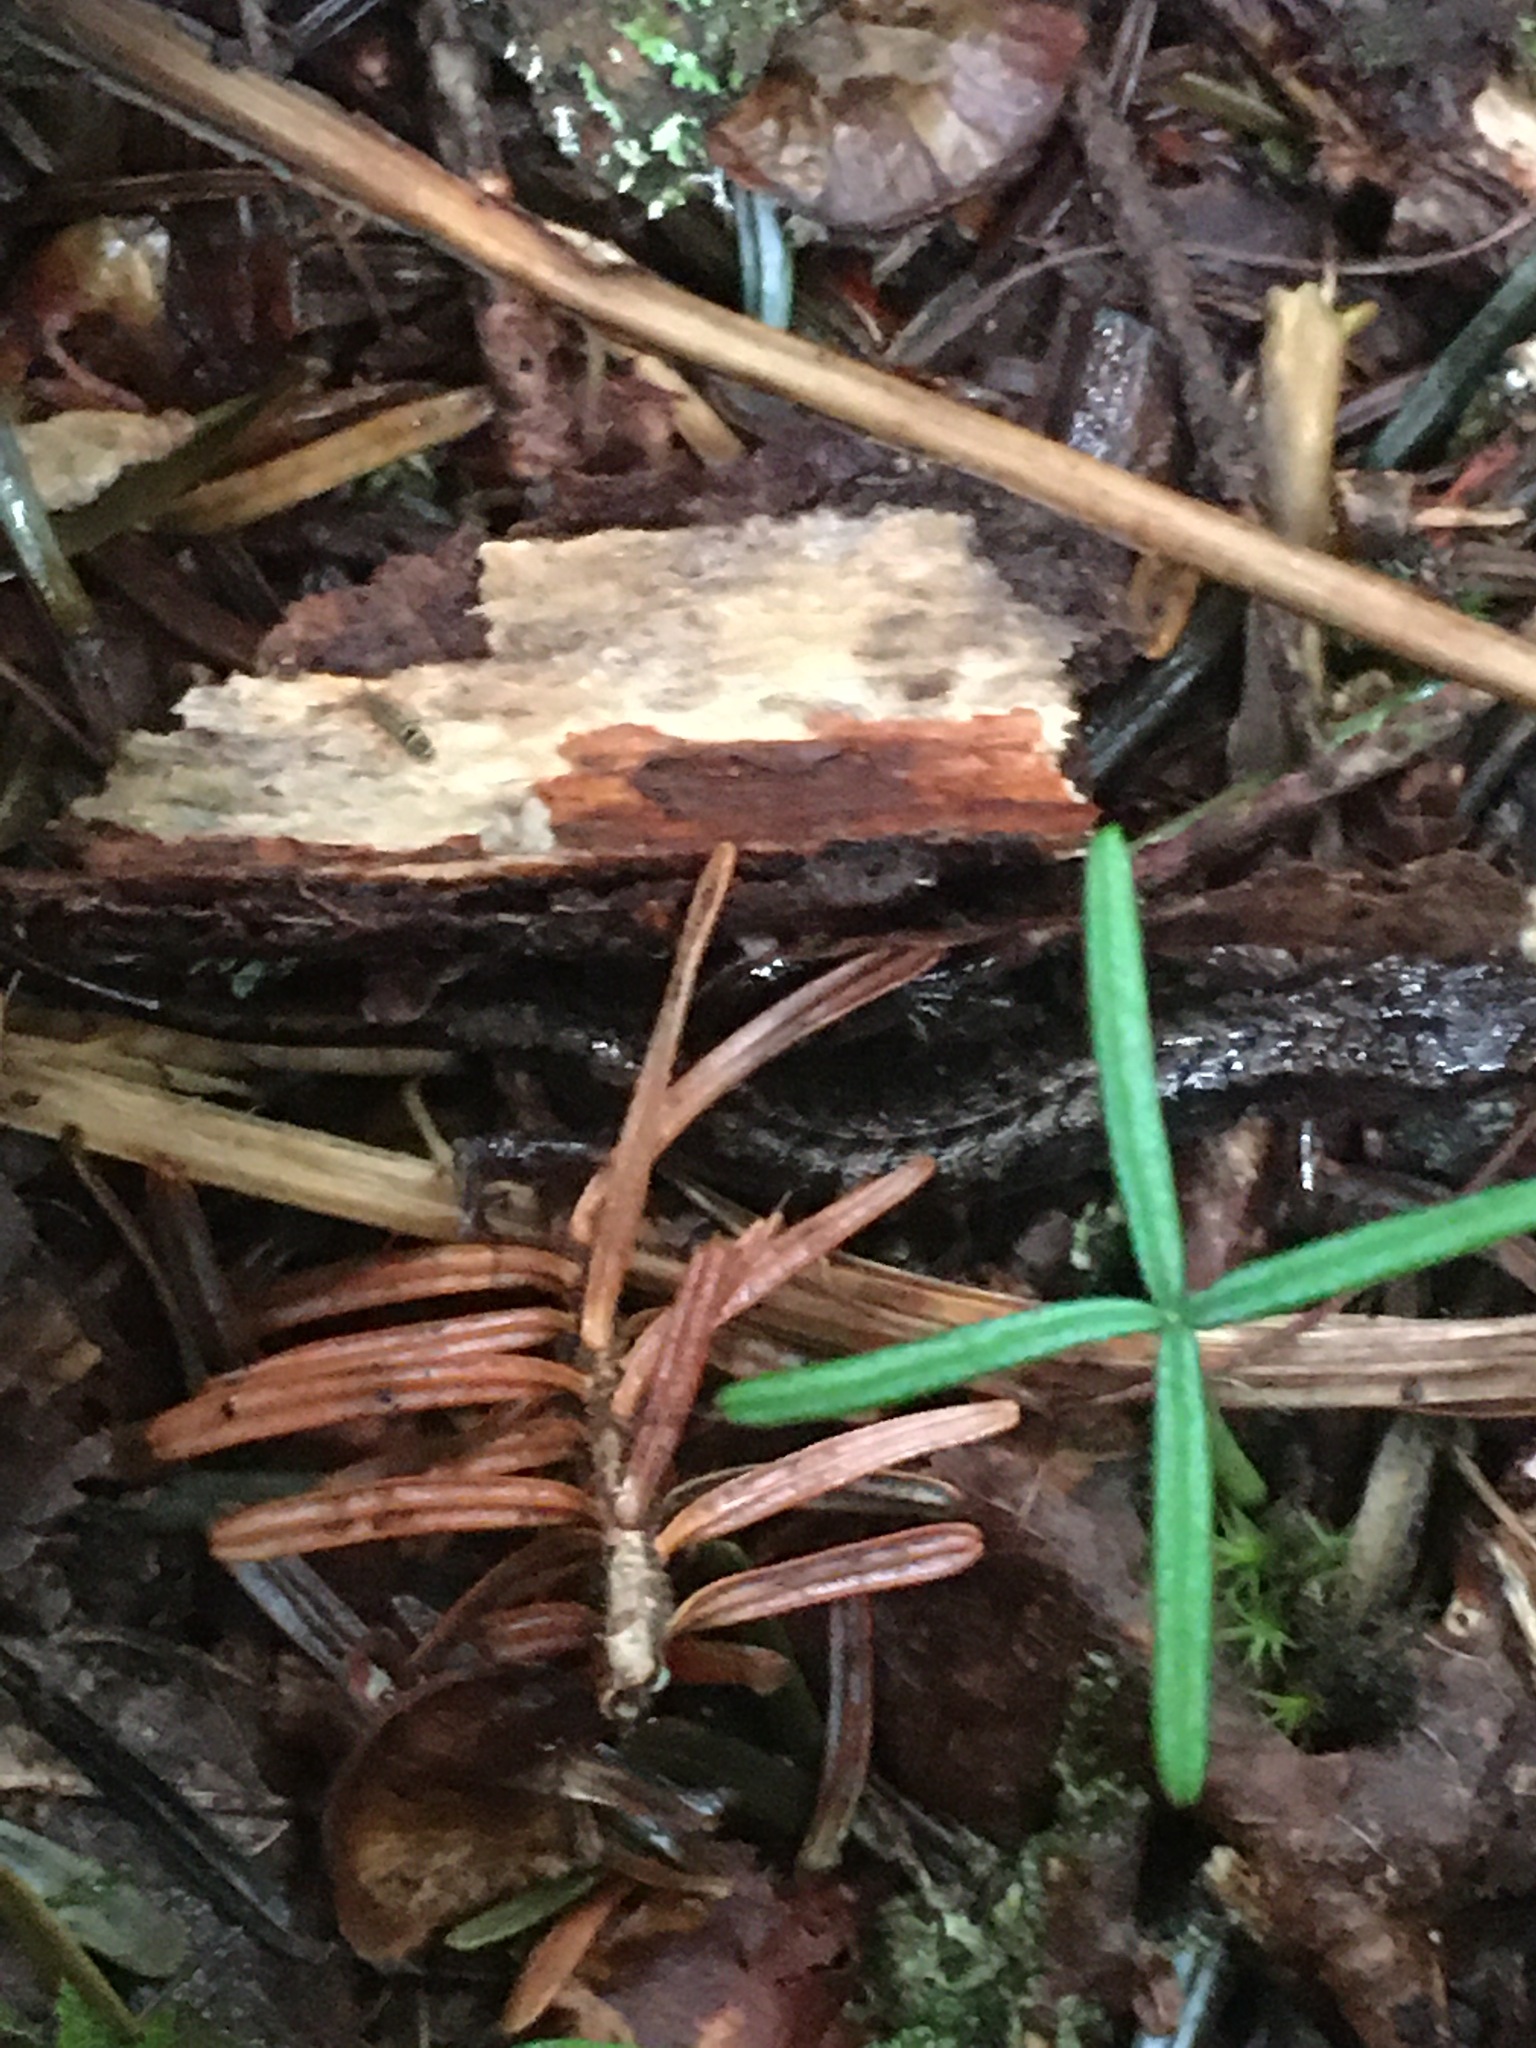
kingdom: Animalia
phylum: Chordata
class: Amphibia
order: Caudata
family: Plethodontidae
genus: Desmognathus
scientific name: Desmognathus organi
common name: Northern pygmy salamander
